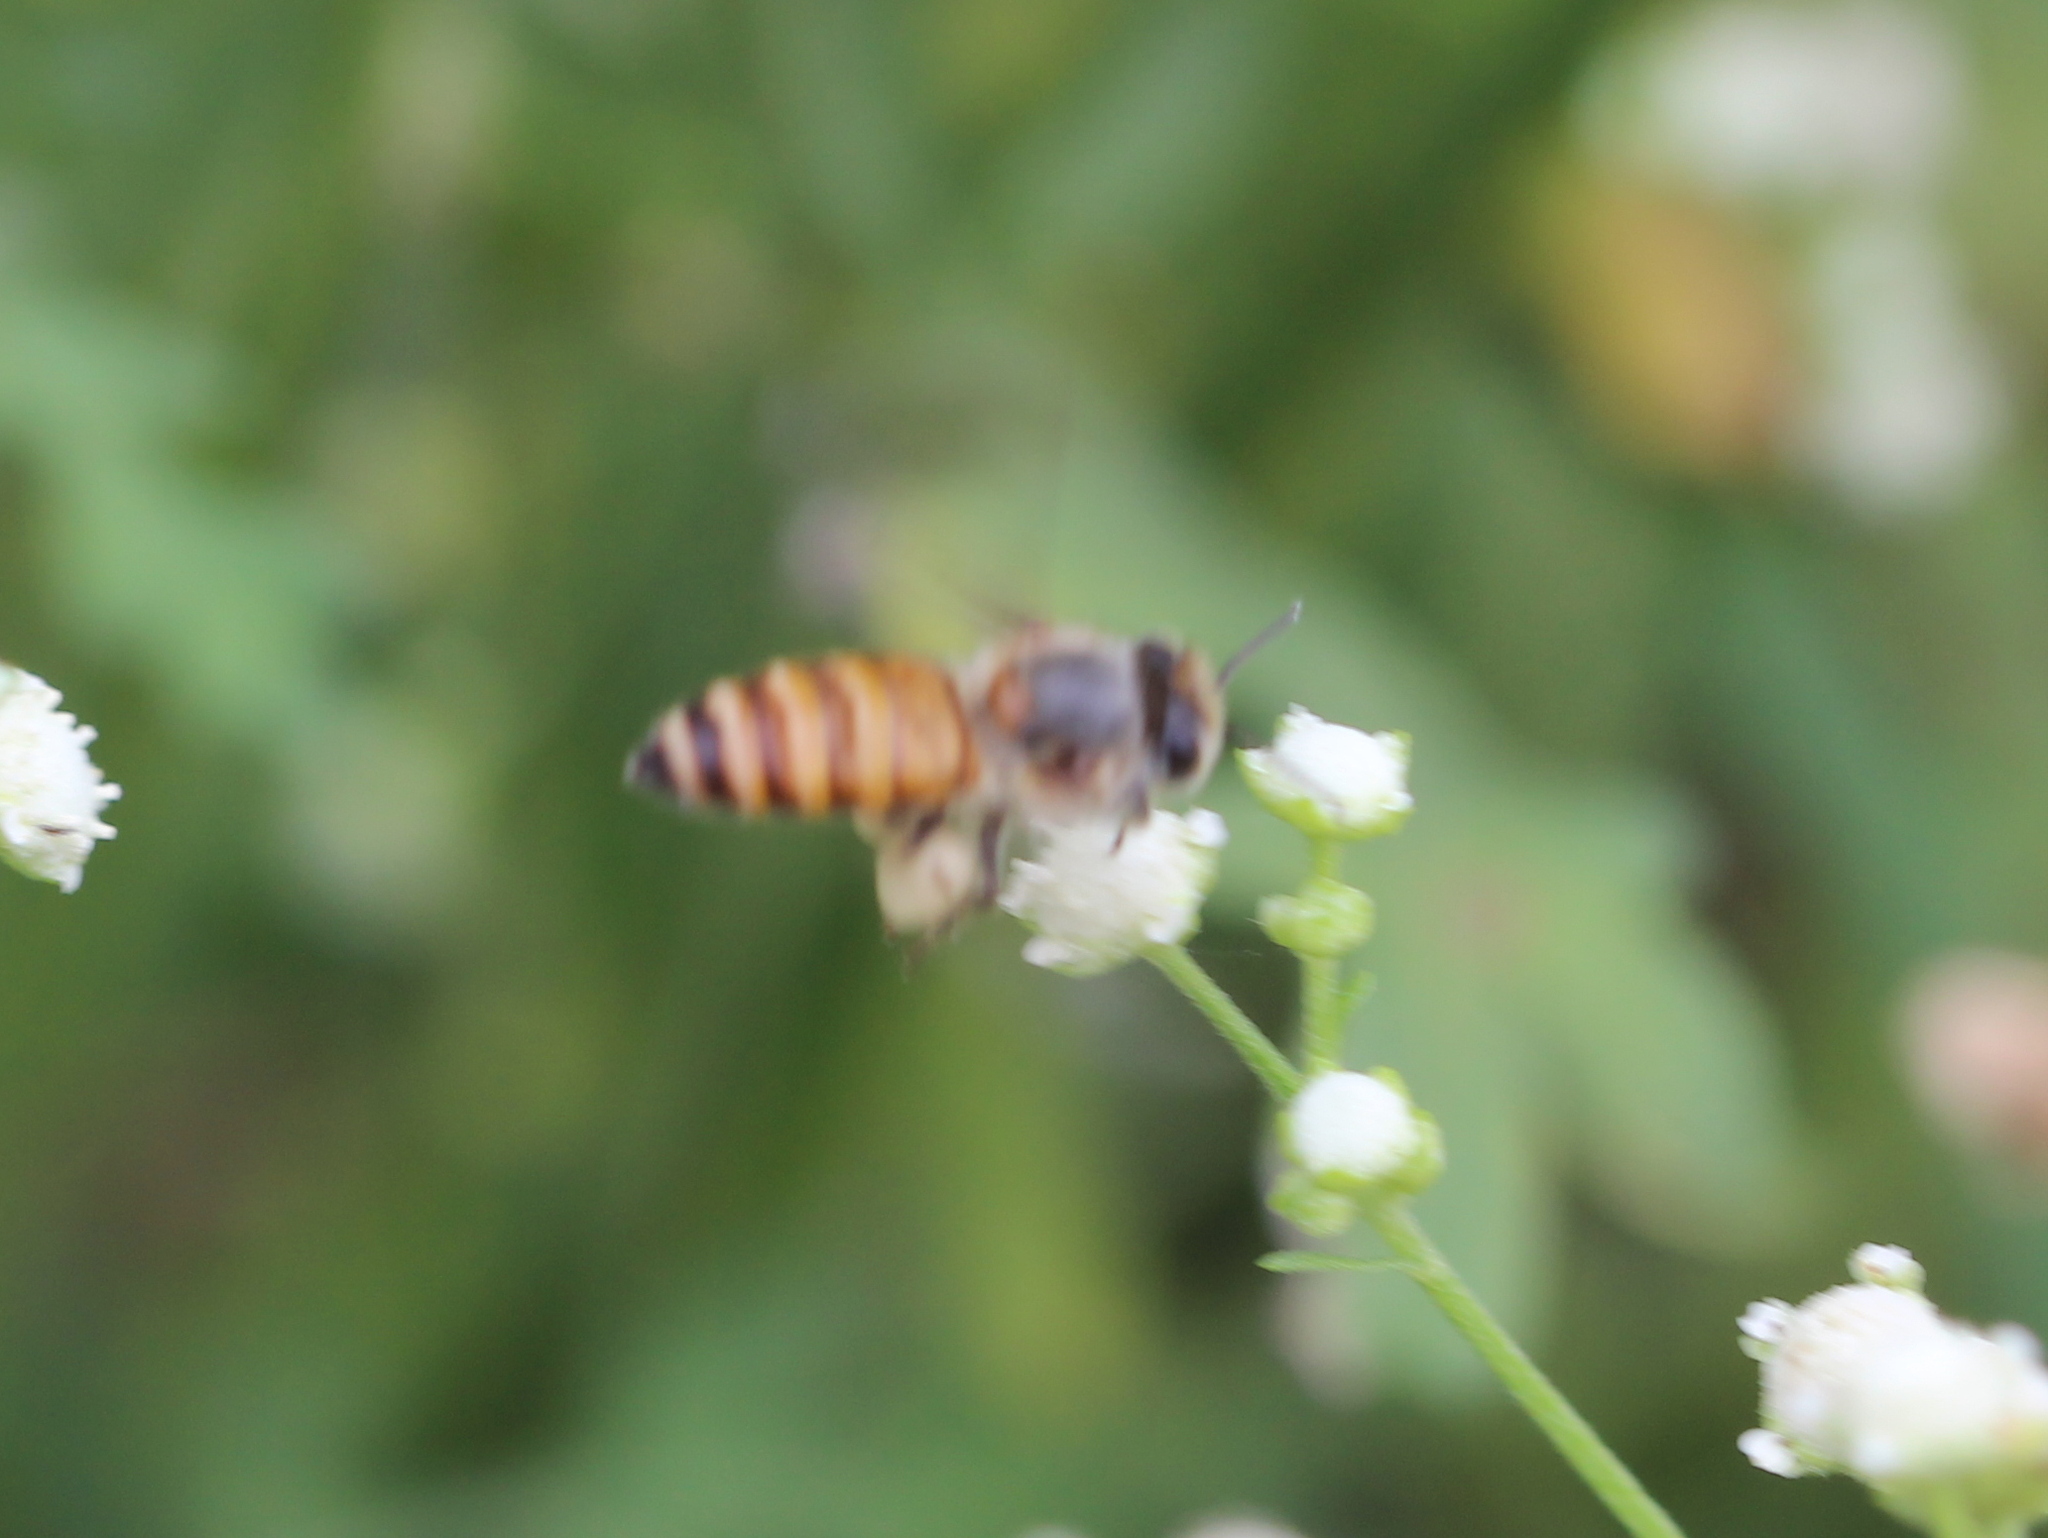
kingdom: Animalia
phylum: Arthropoda
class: Insecta
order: Hymenoptera
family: Apidae
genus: Apis
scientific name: Apis cerana
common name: Honey bee
